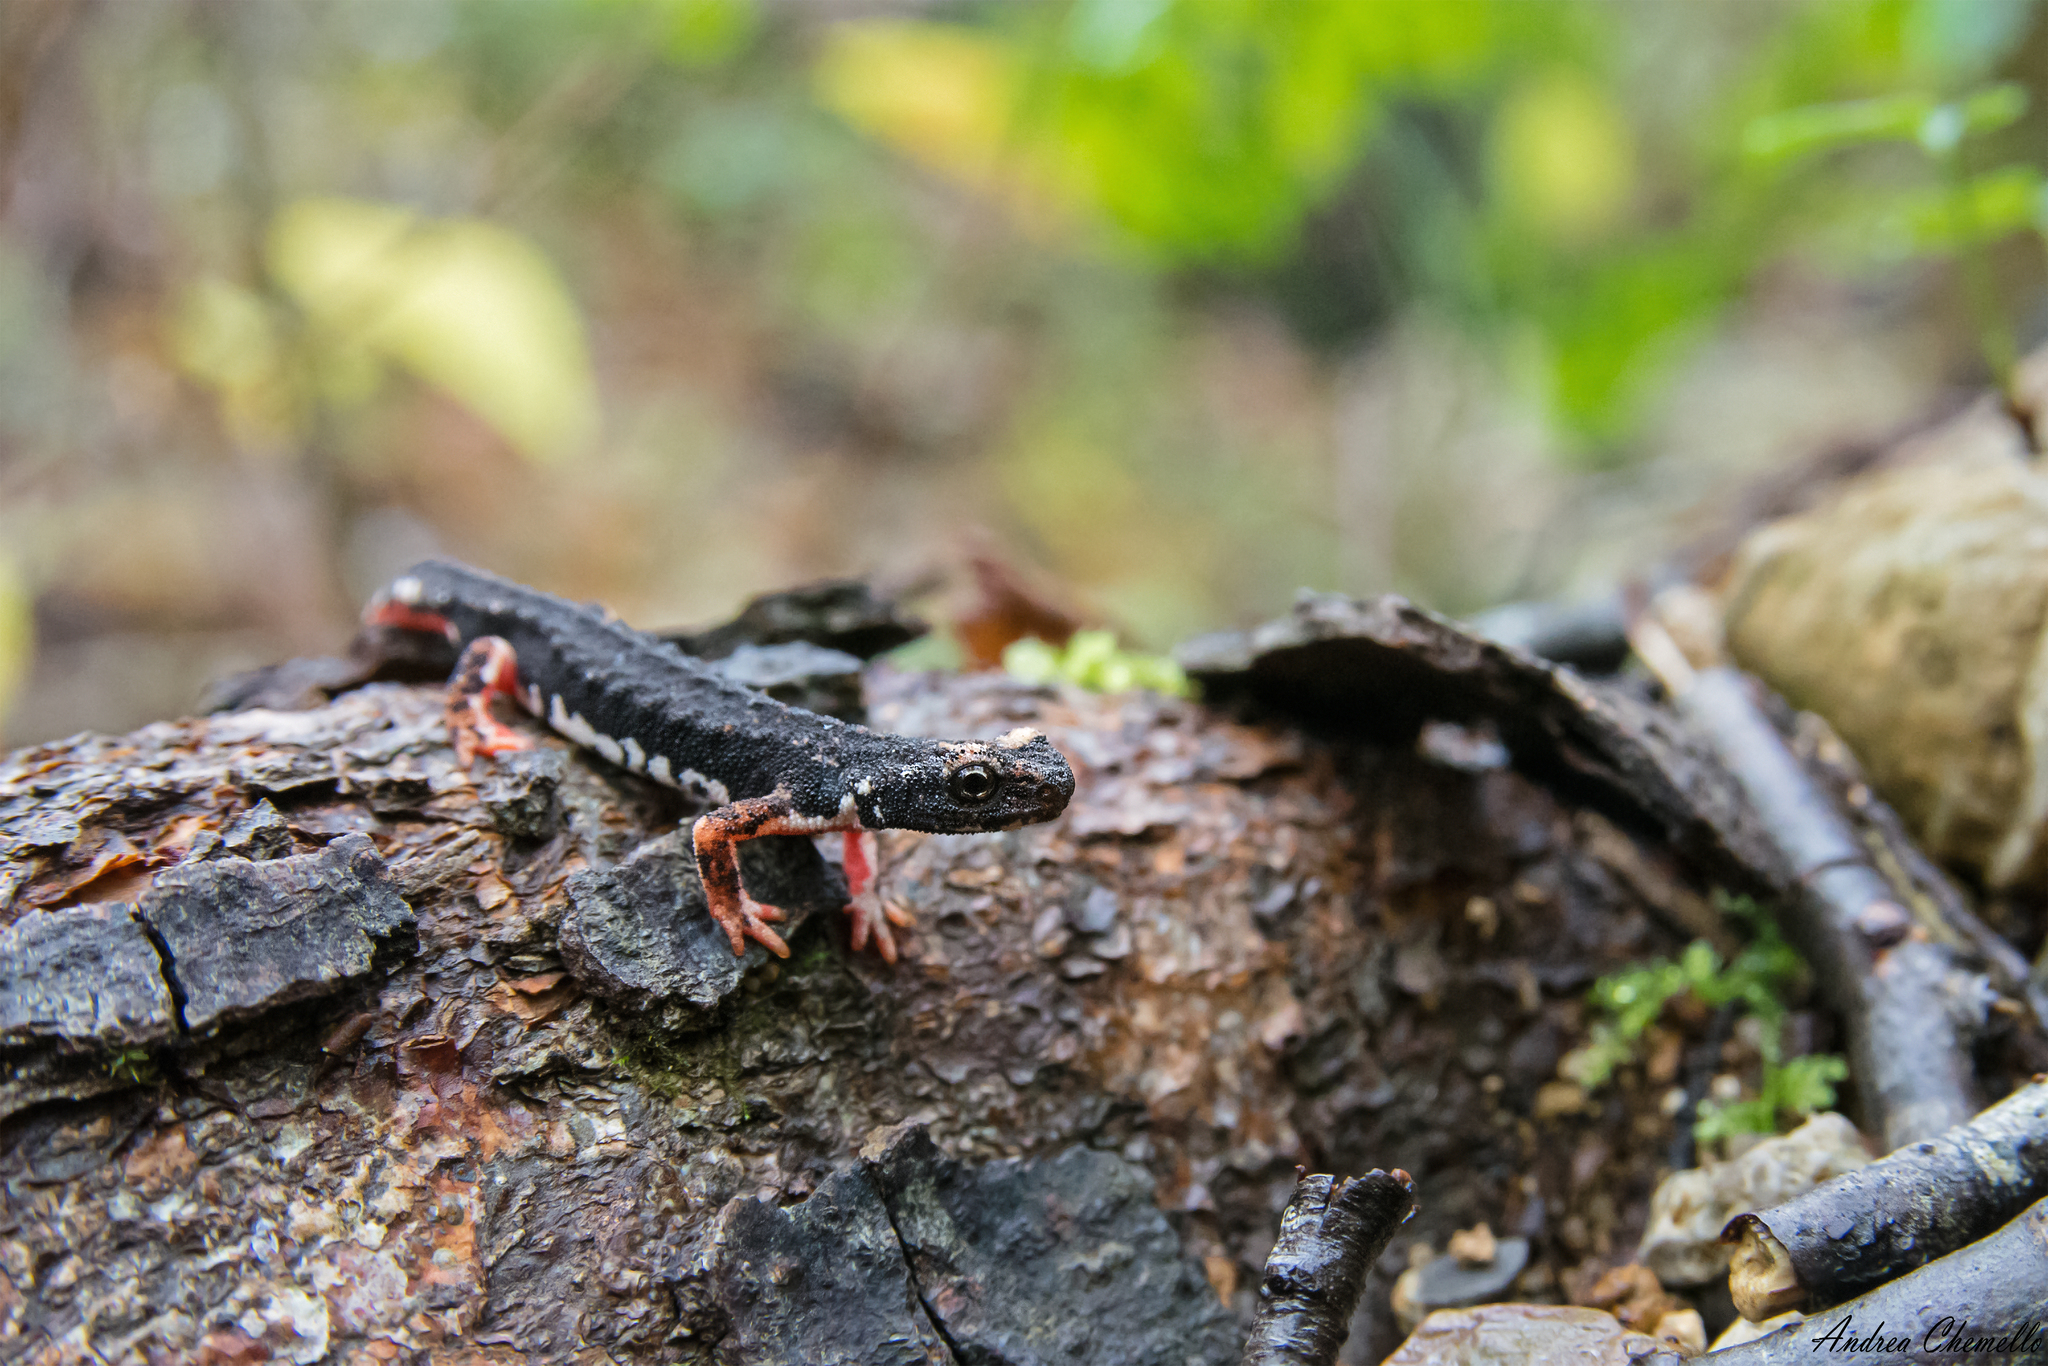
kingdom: Animalia
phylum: Chordata
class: Amphibia
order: Caudata
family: Salamandridae
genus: Salamandrina
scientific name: Salamandrina perspicillata
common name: Northern spectacled salamander
